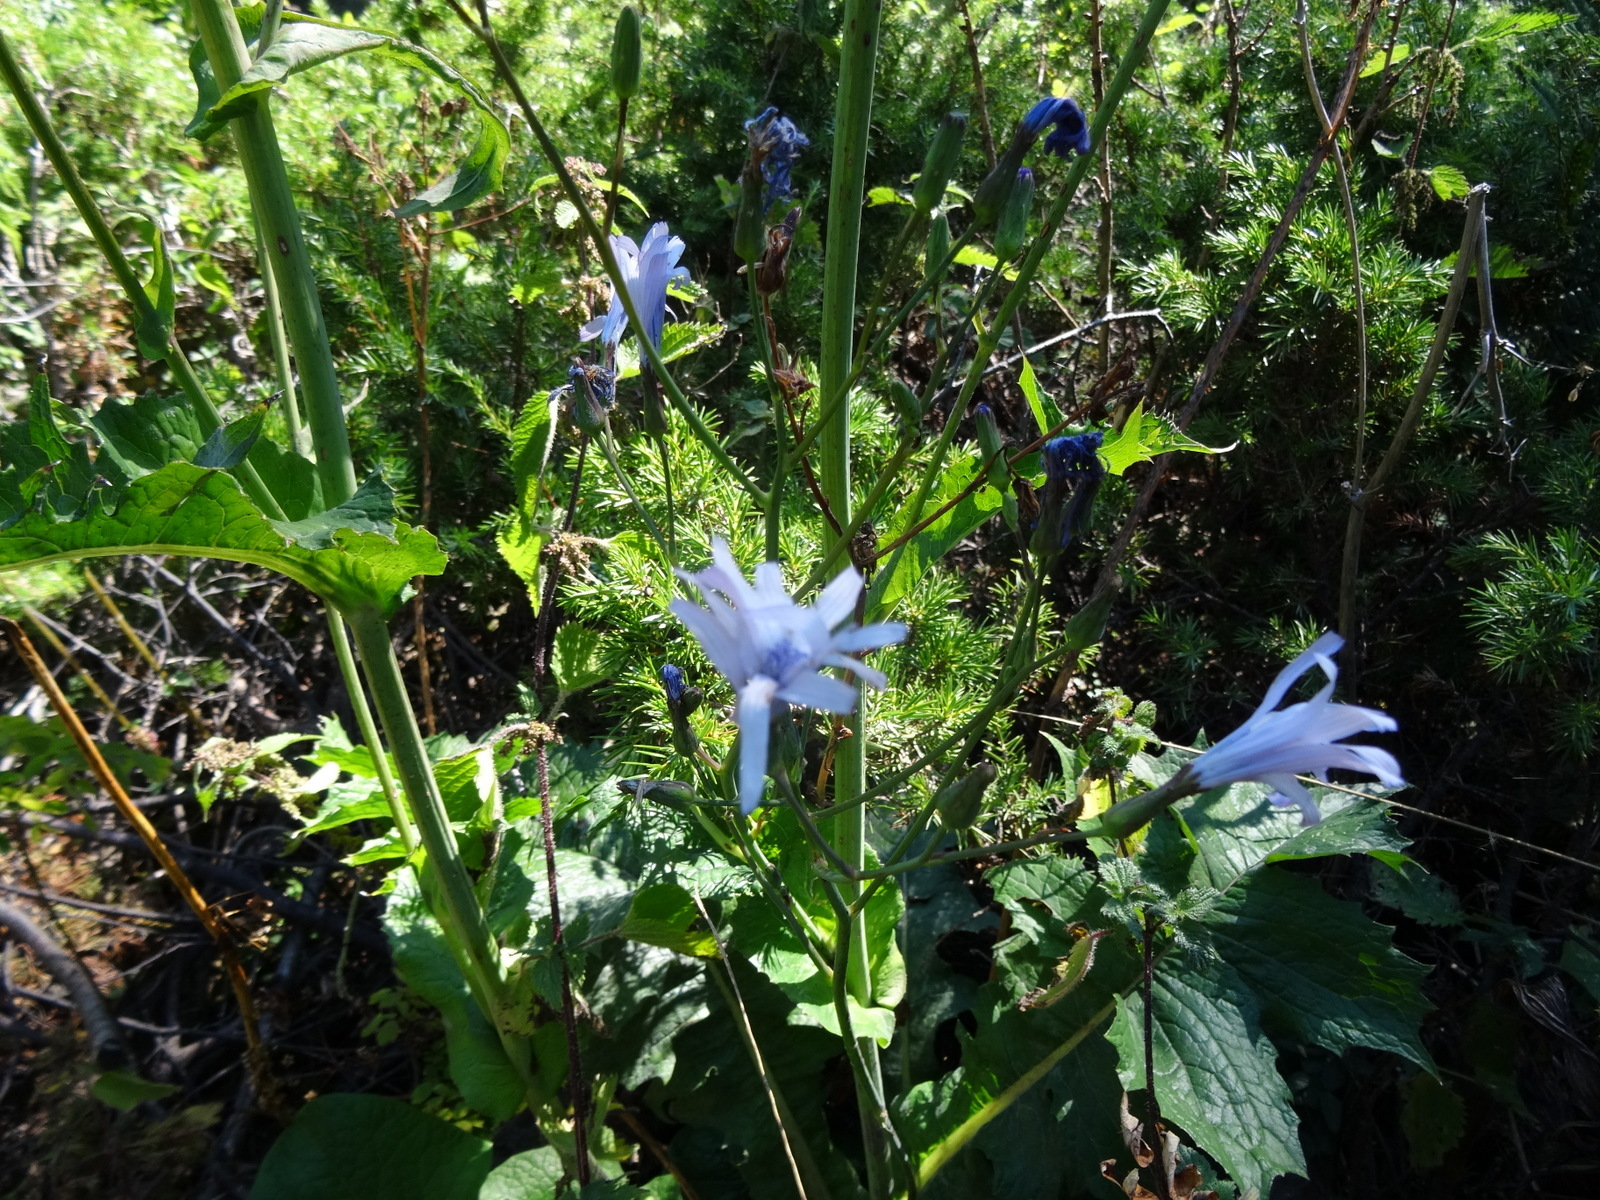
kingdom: Plantae
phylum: Tracheophyta
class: Magnoliopsida
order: Asterales
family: Asteraceae
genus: Lactuca
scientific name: Lactuca plumieri
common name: Hairless blue-sow-thistle
